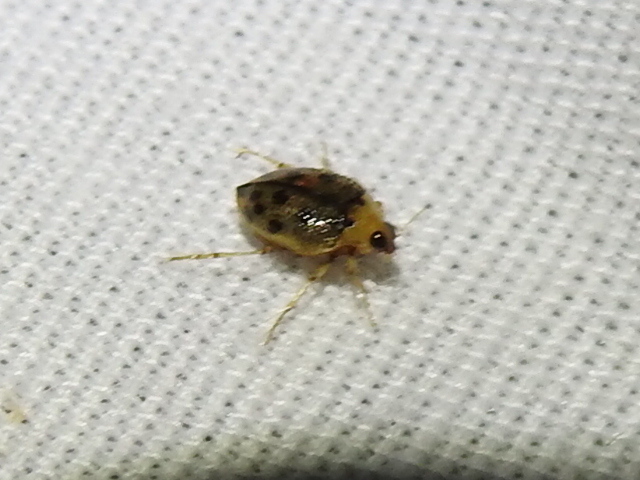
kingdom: Animalia
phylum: Arthropoda
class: Insecta
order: Coleoptera
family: Haliplidae
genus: Peltodytes
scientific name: Peltodytes litoralis
